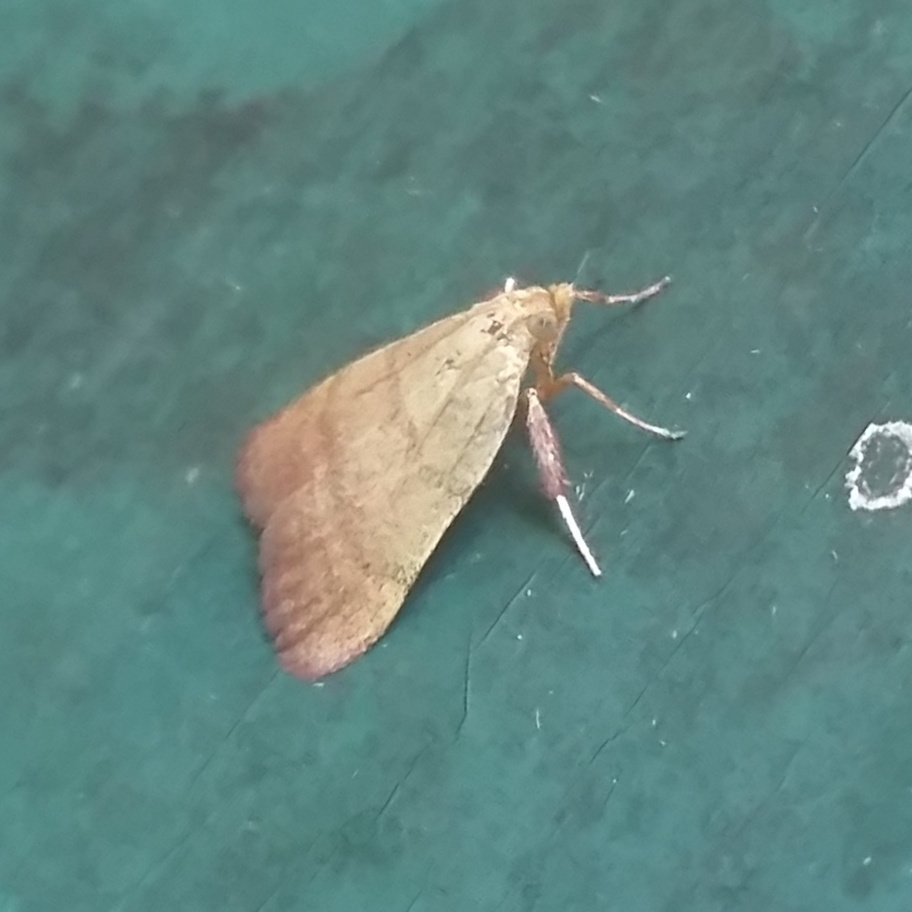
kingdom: Animalia
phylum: Arthropoda
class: Insecta
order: Lepidoptera
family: Pyralidae
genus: Condylolomia
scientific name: Condylolomia participialis
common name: Drab condylolomia moth
